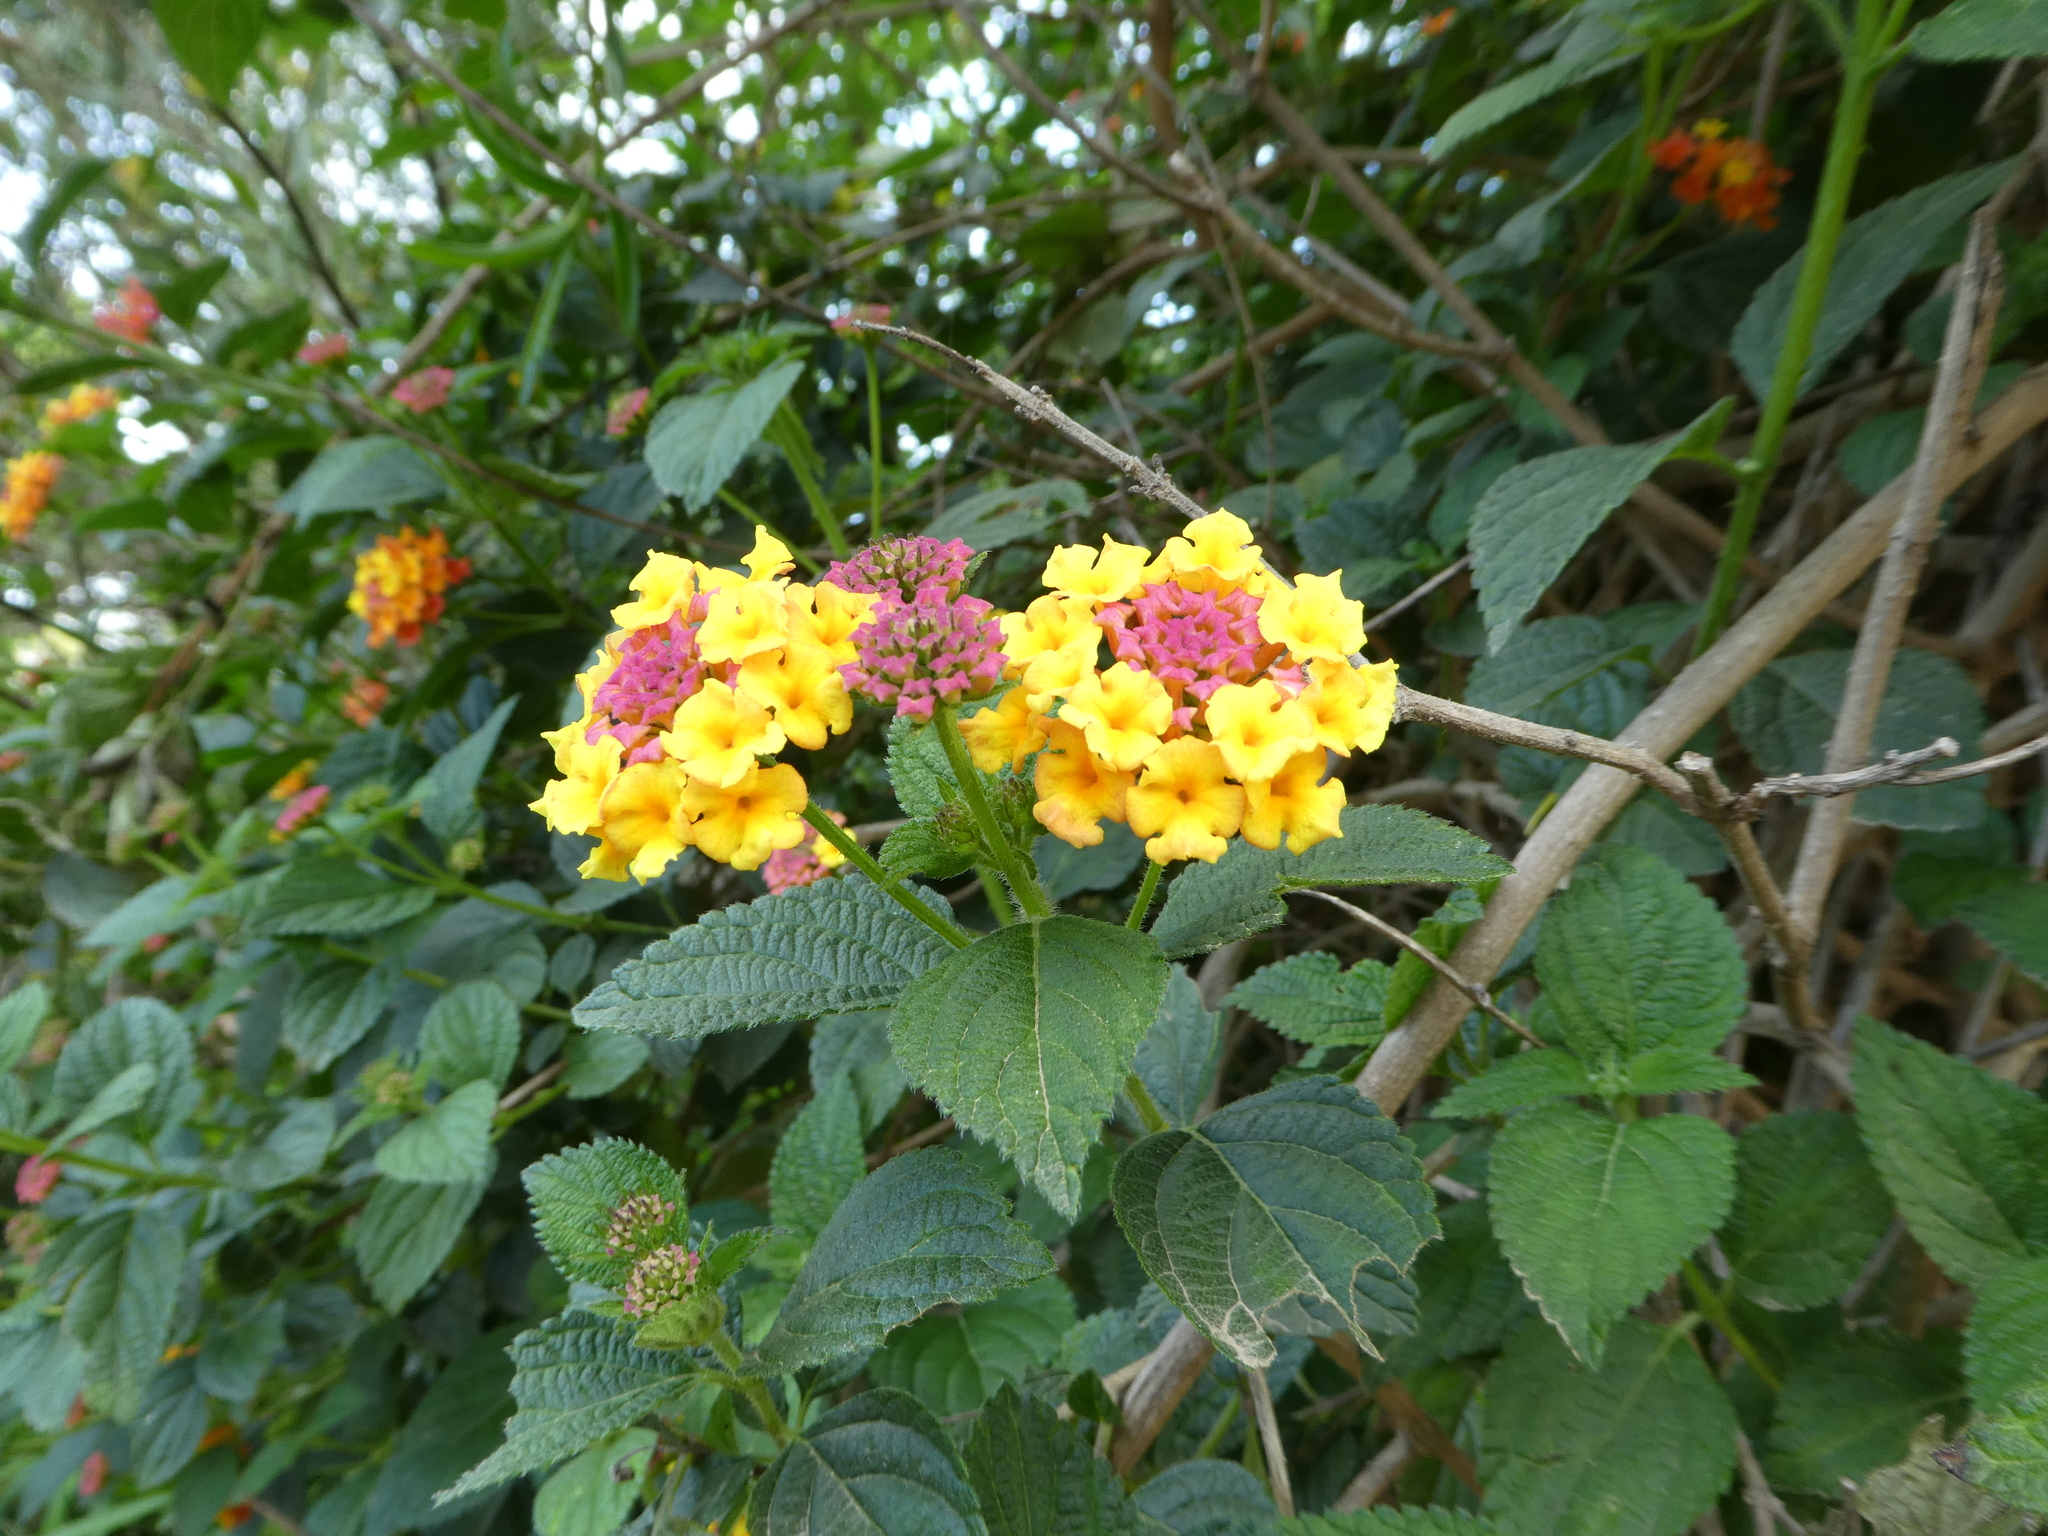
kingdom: Plantae
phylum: Tracheophyta
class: Magnoliopsida
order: Lamiales
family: Verbenaceae
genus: Lantana
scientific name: Lantana camara
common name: Lantana
